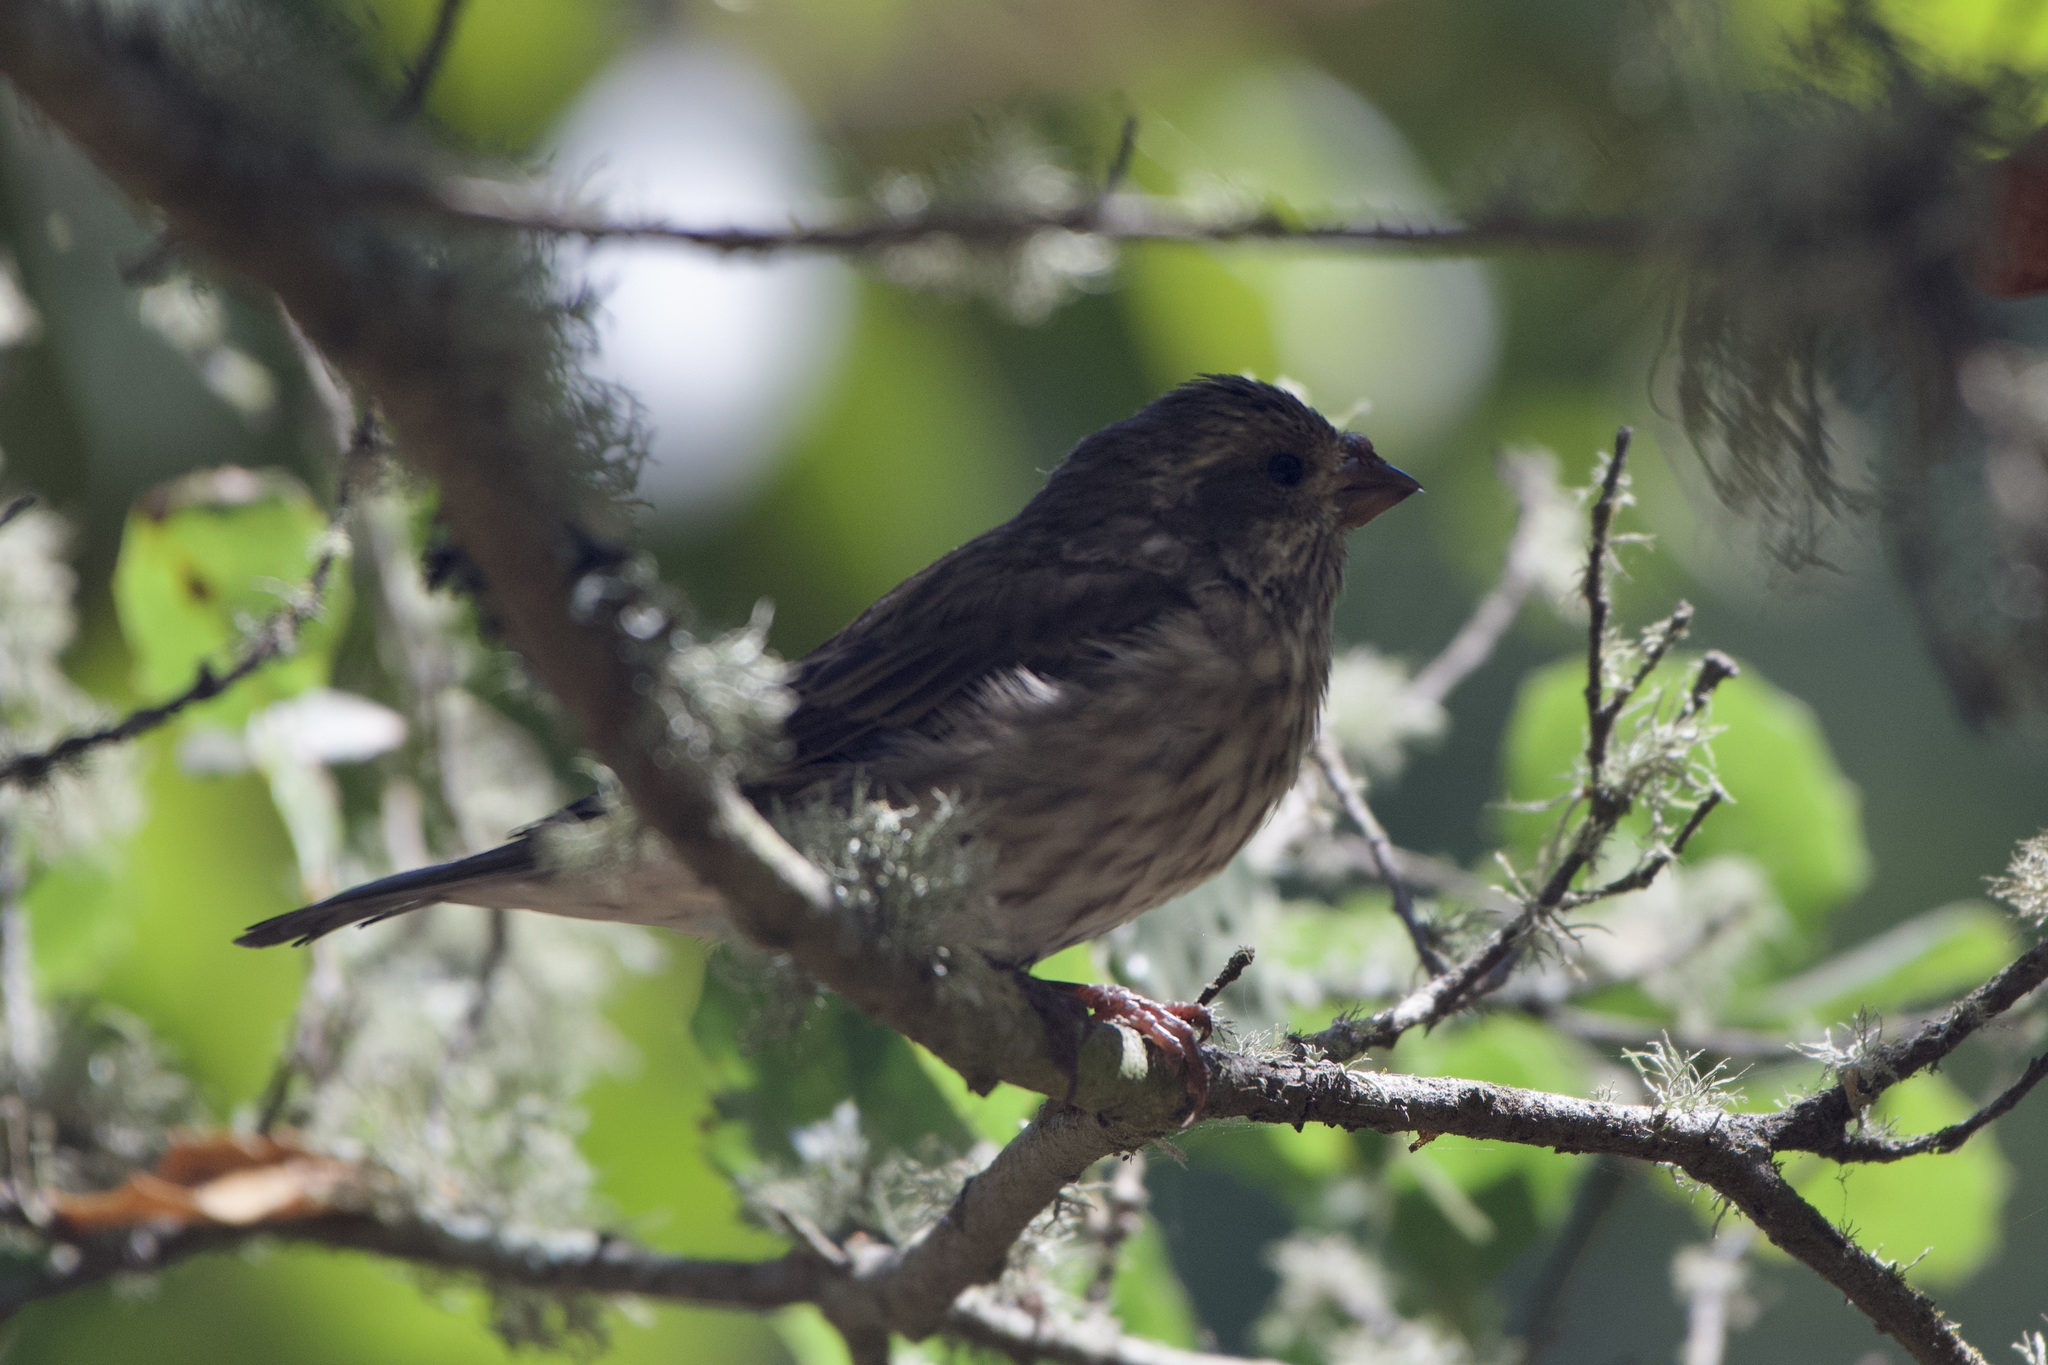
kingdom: Animalia
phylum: Chordata
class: Aves
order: Passeriformes
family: Fringillidae
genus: Haemorhous
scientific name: Haemorhous purpureus
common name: Purple finch
